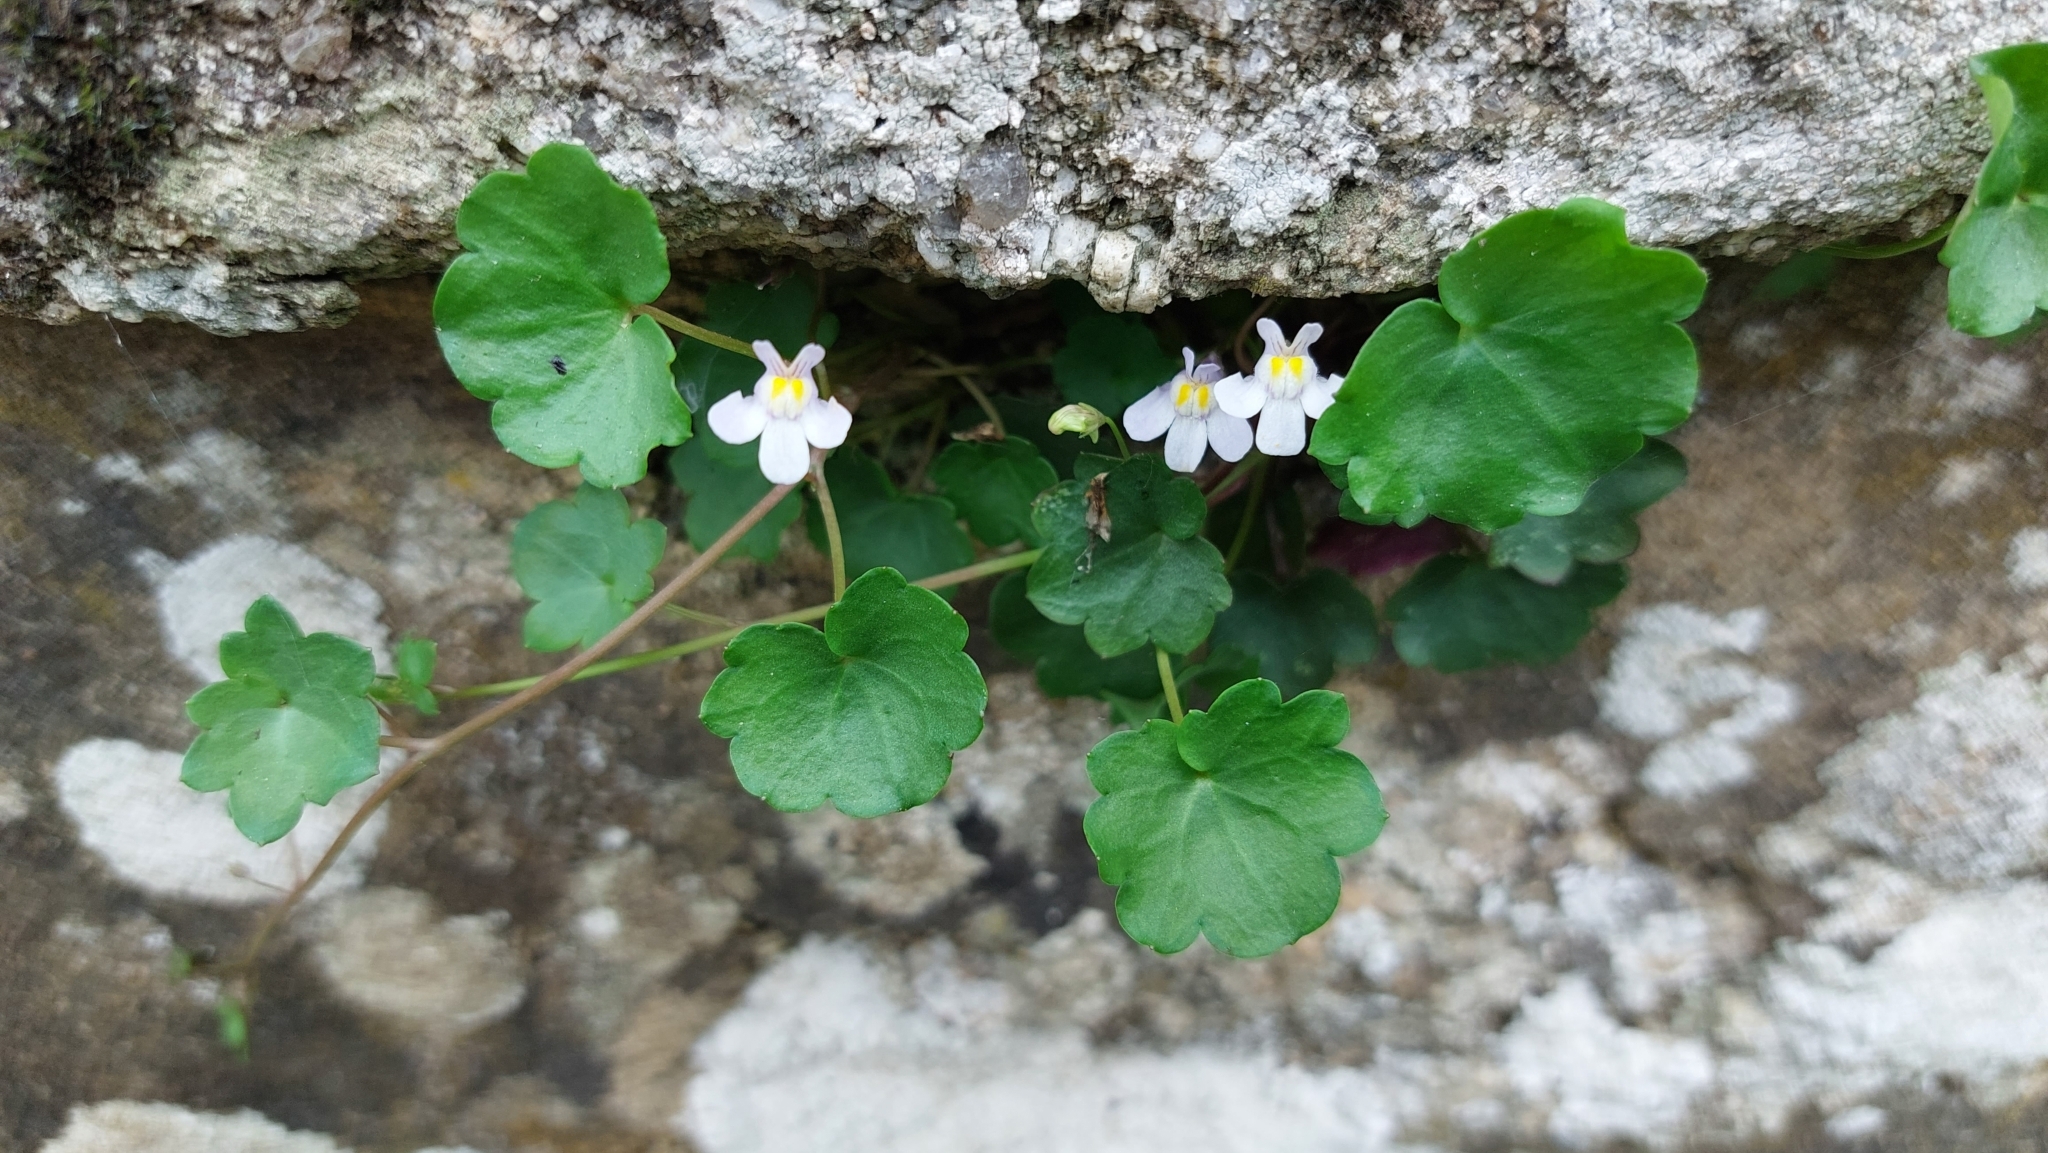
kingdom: Plantae
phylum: Tracheophyta
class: Magnoliopsida
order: Lamiales
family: Plantaginaceae
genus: Cymbalaria
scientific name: Cymbalaria muralis
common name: Ivy-leaved toadflax
